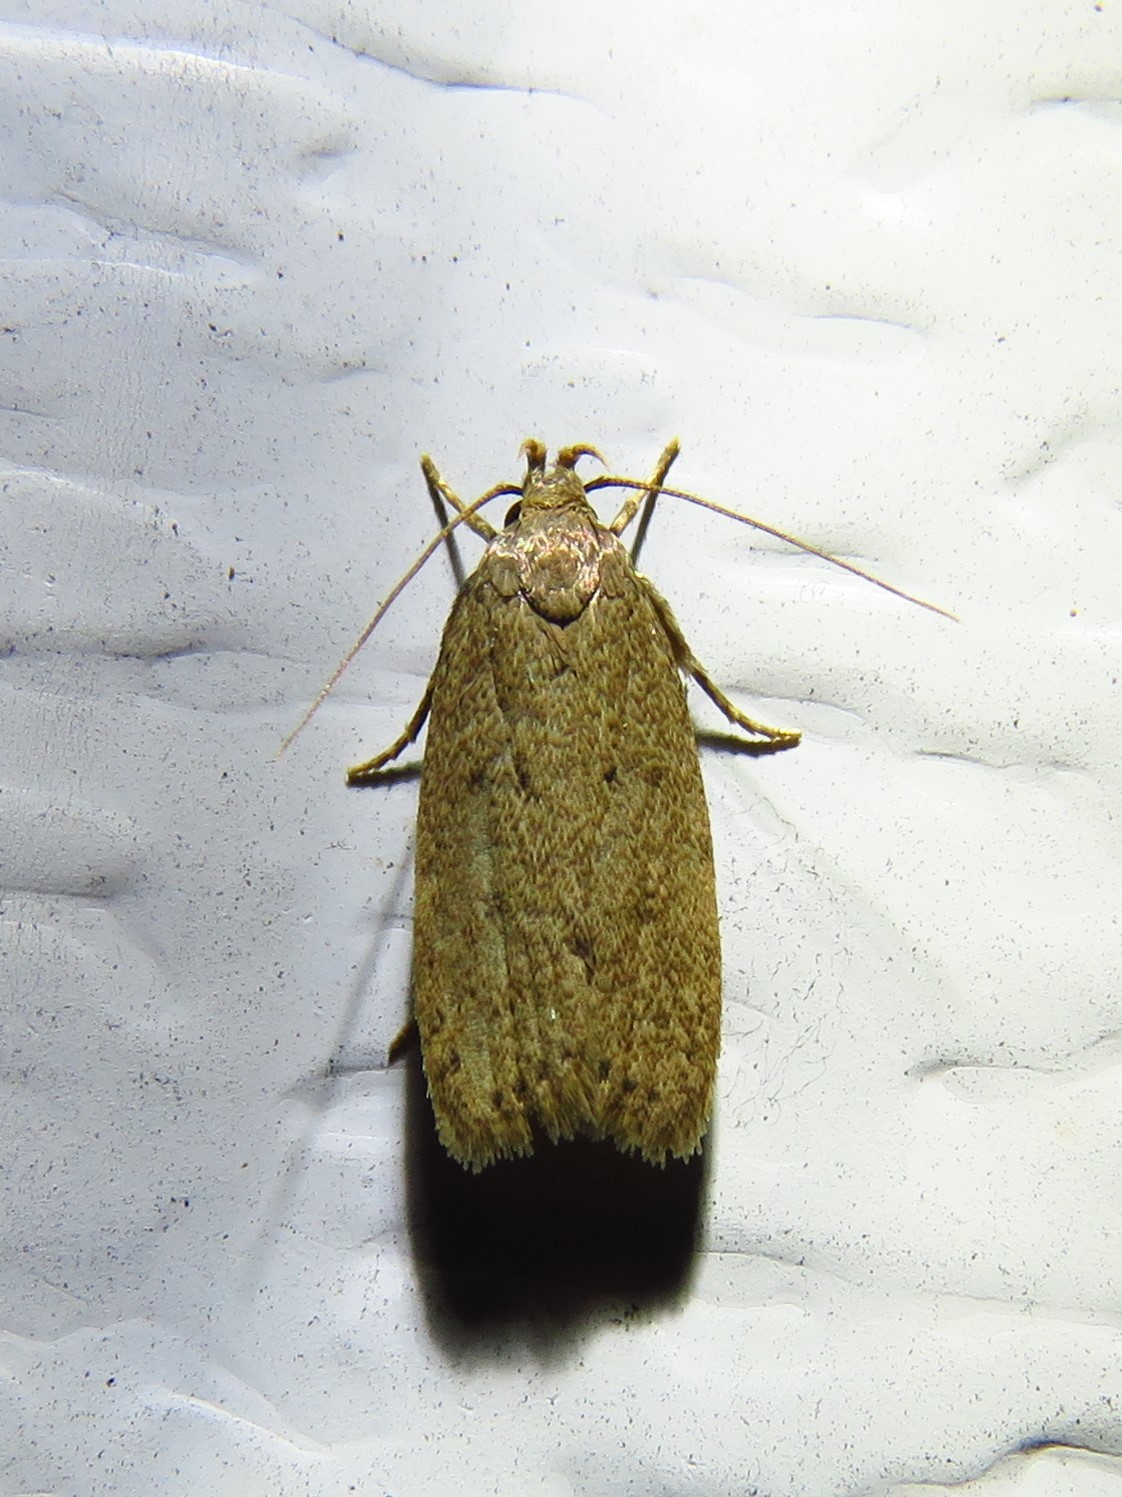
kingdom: Animalia
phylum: Arthropoda
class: Insecta
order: Lepidoptera
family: Autostichidae
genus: Autosticha
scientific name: Autosticha kyotensis
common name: Kyoto moth
